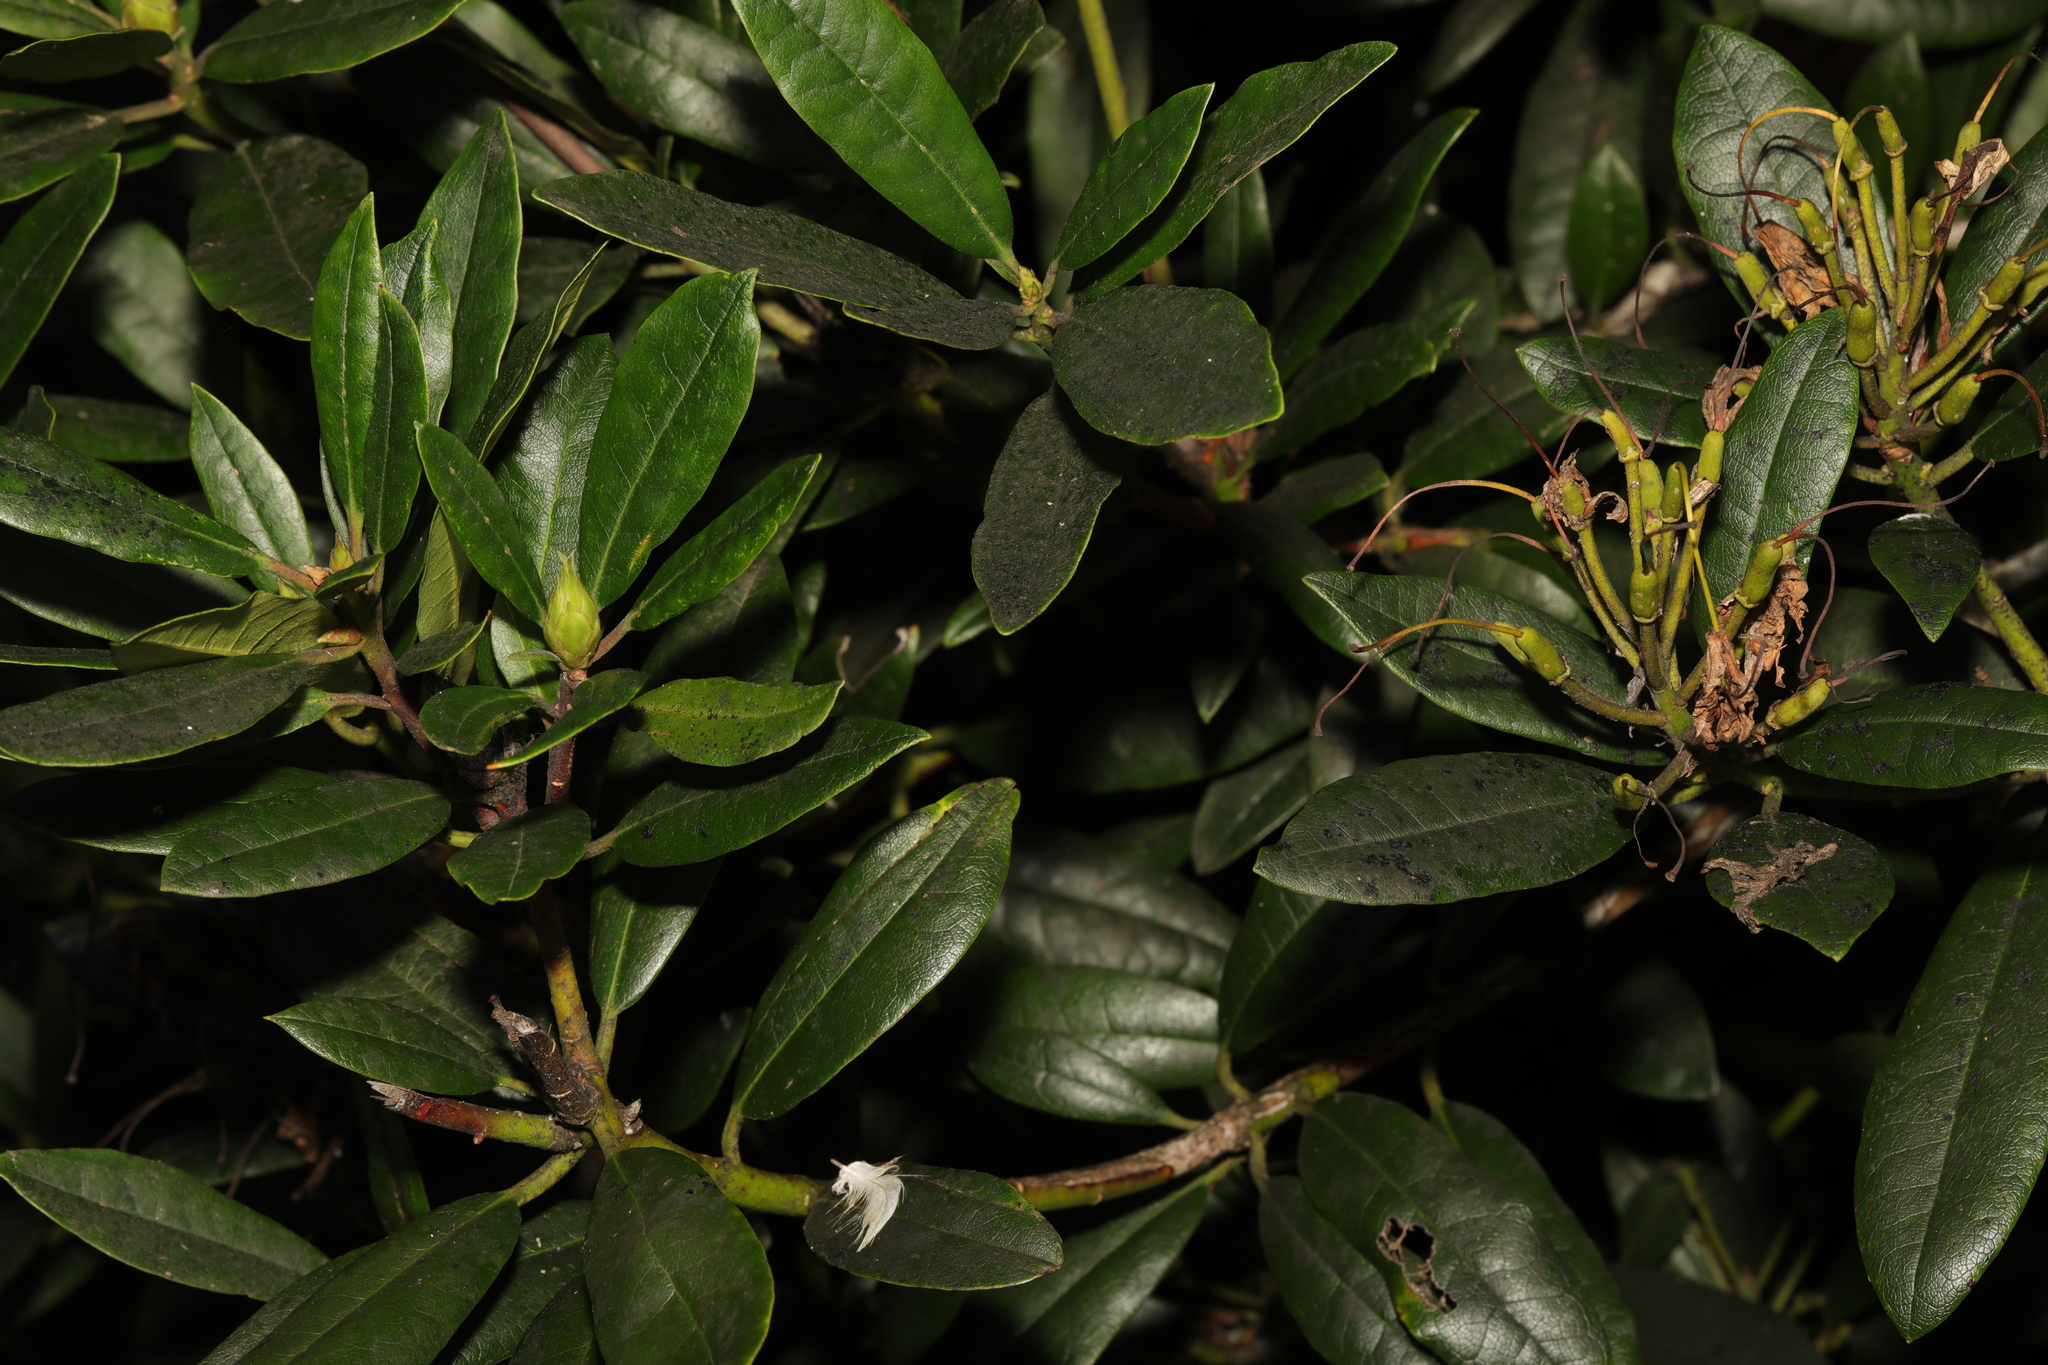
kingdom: Plantae
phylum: Tracheophyta
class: Magnoliopsida
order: Ericales
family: Ericaceae
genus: Rhododendron
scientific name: Rhododendron ponticum
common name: Rhododendron
